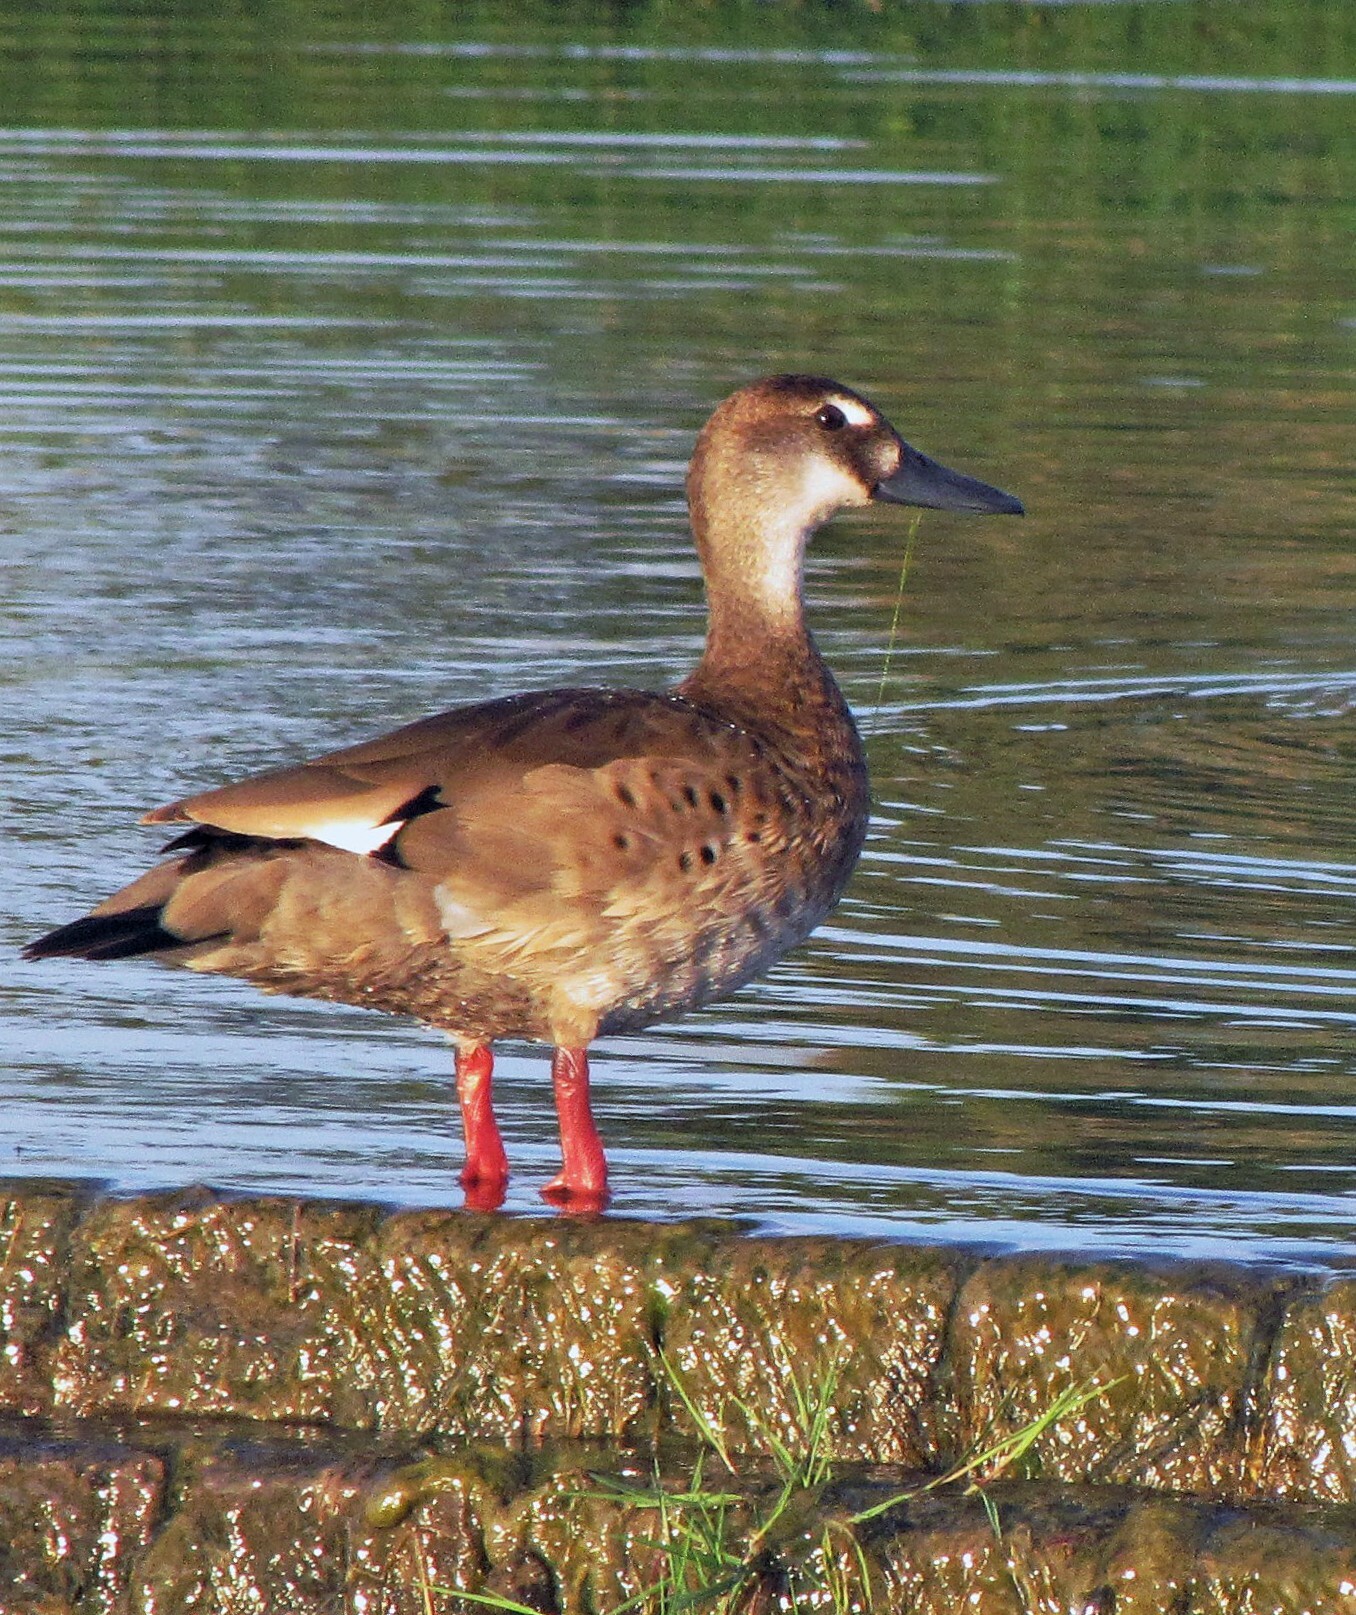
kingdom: Animalia
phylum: Chordata
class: Aves
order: Anseriformes
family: Anatidae
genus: Amazonetta
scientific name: Amazonetta brasiliensis
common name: Brazilian teal
